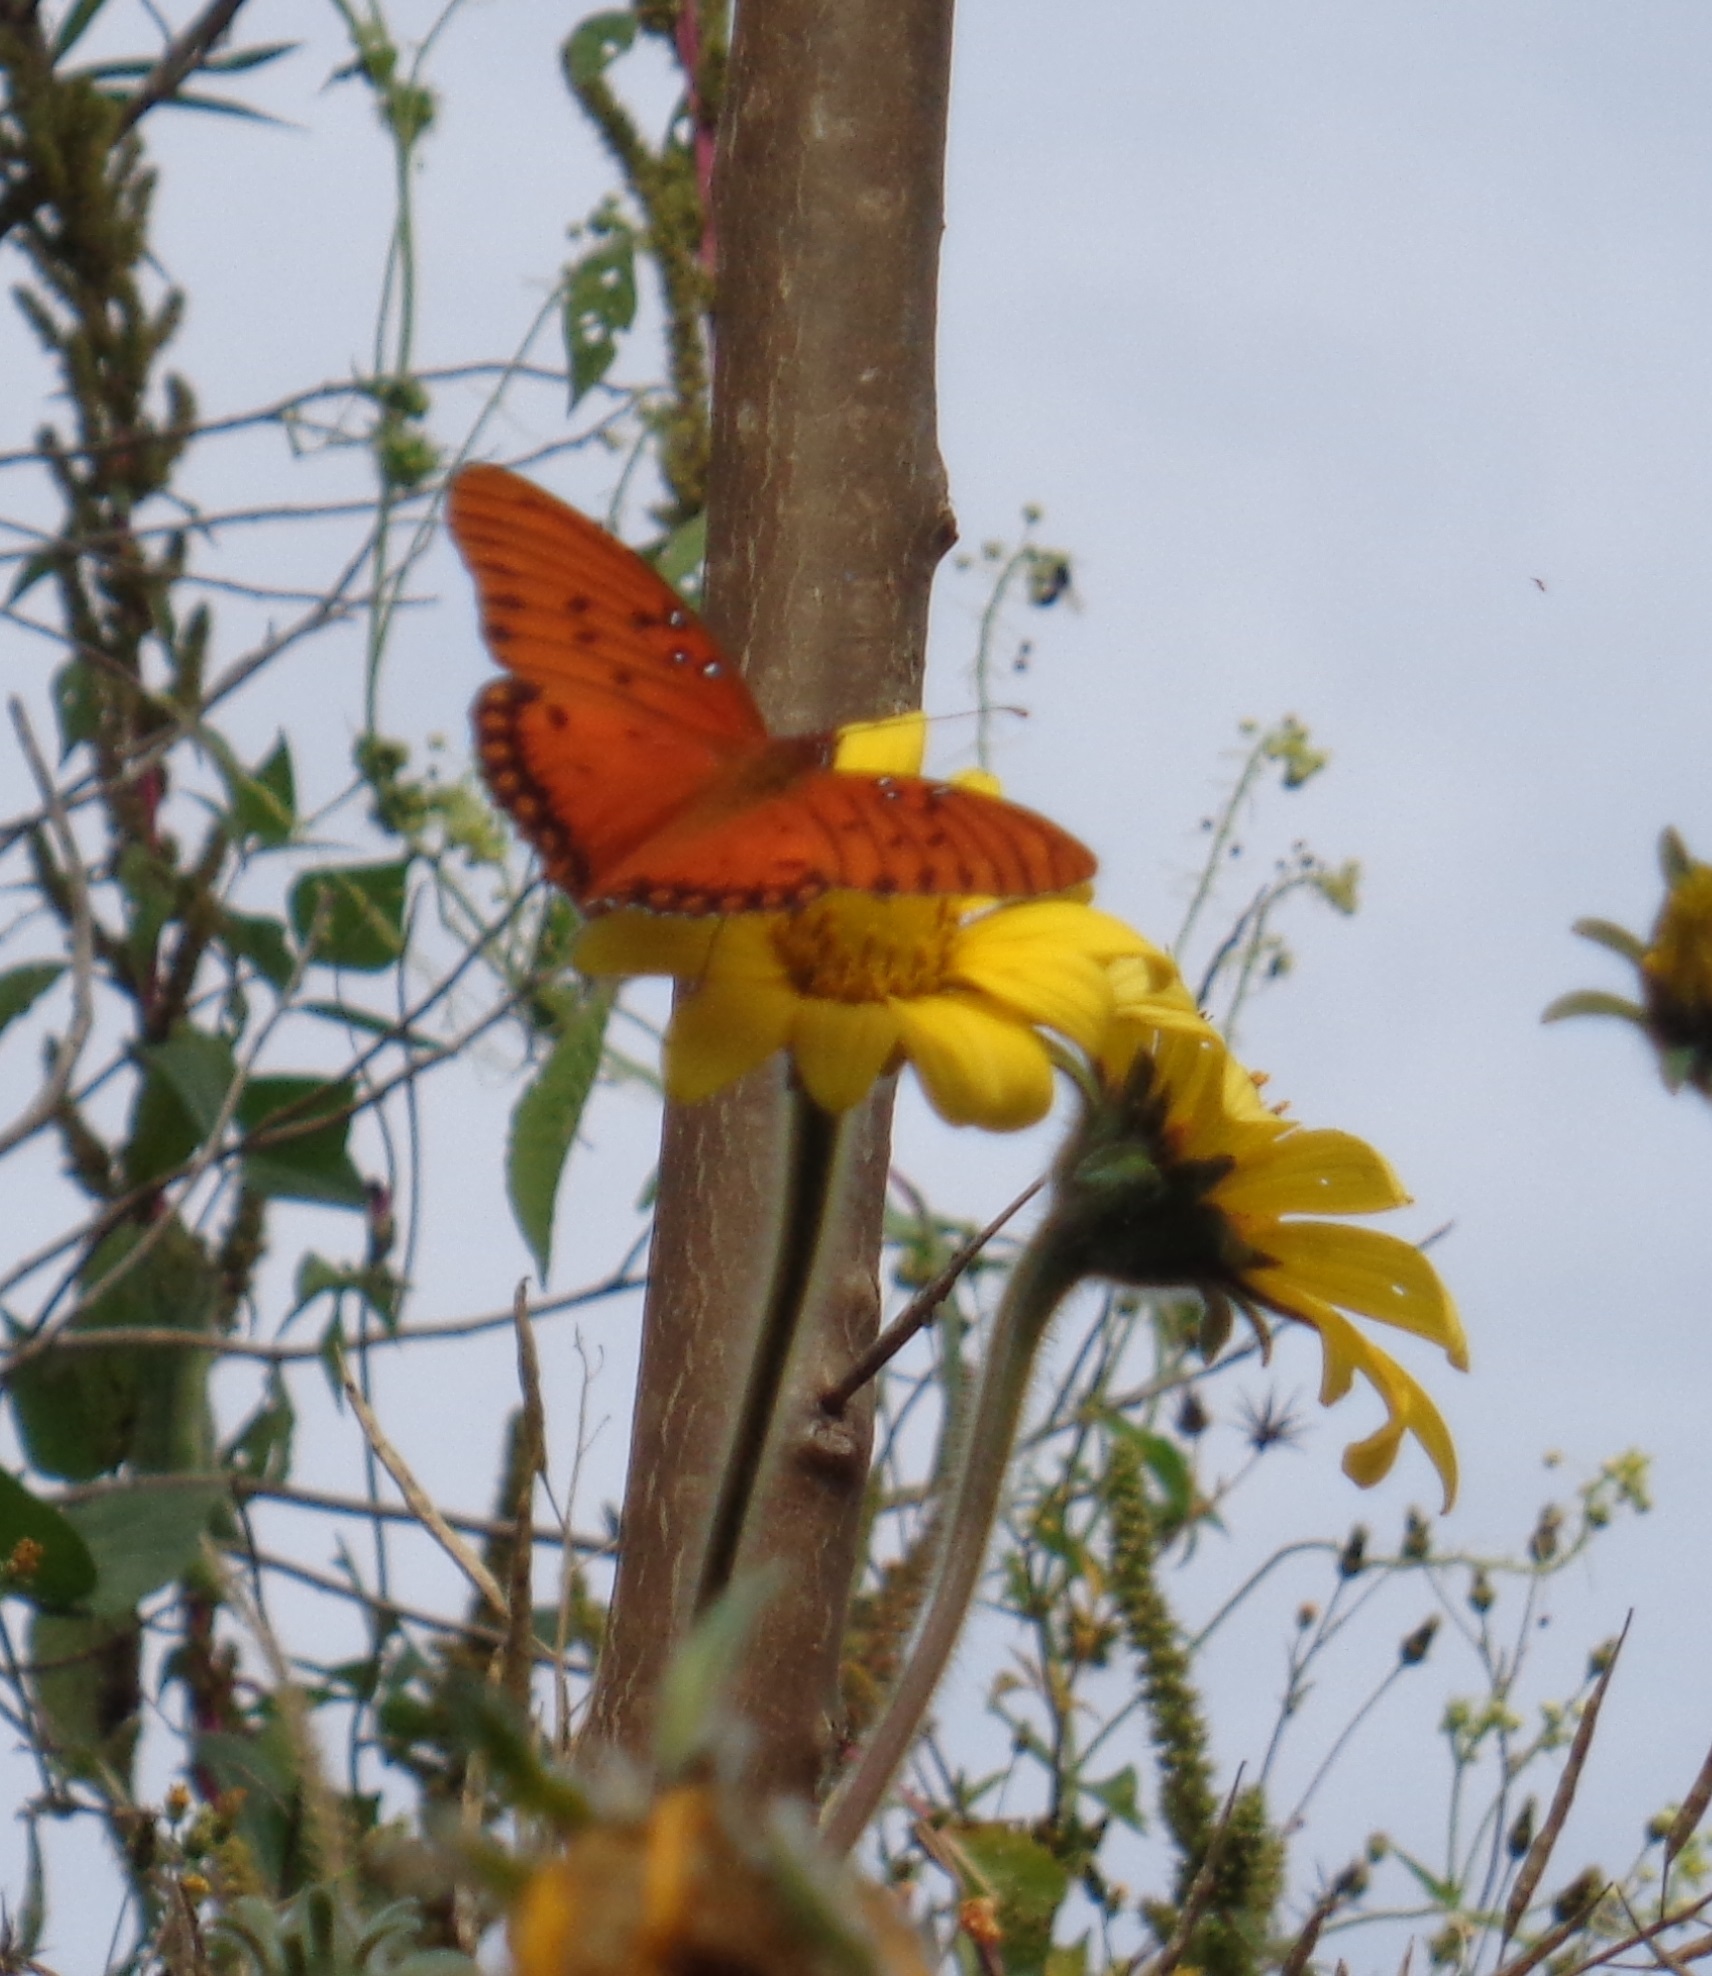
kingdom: Animalia
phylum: Arthropoda
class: Insecta
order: Lepidoptera
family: Nymphalidae
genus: Dione
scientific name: Dione vanillae
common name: Gulf fritillary
